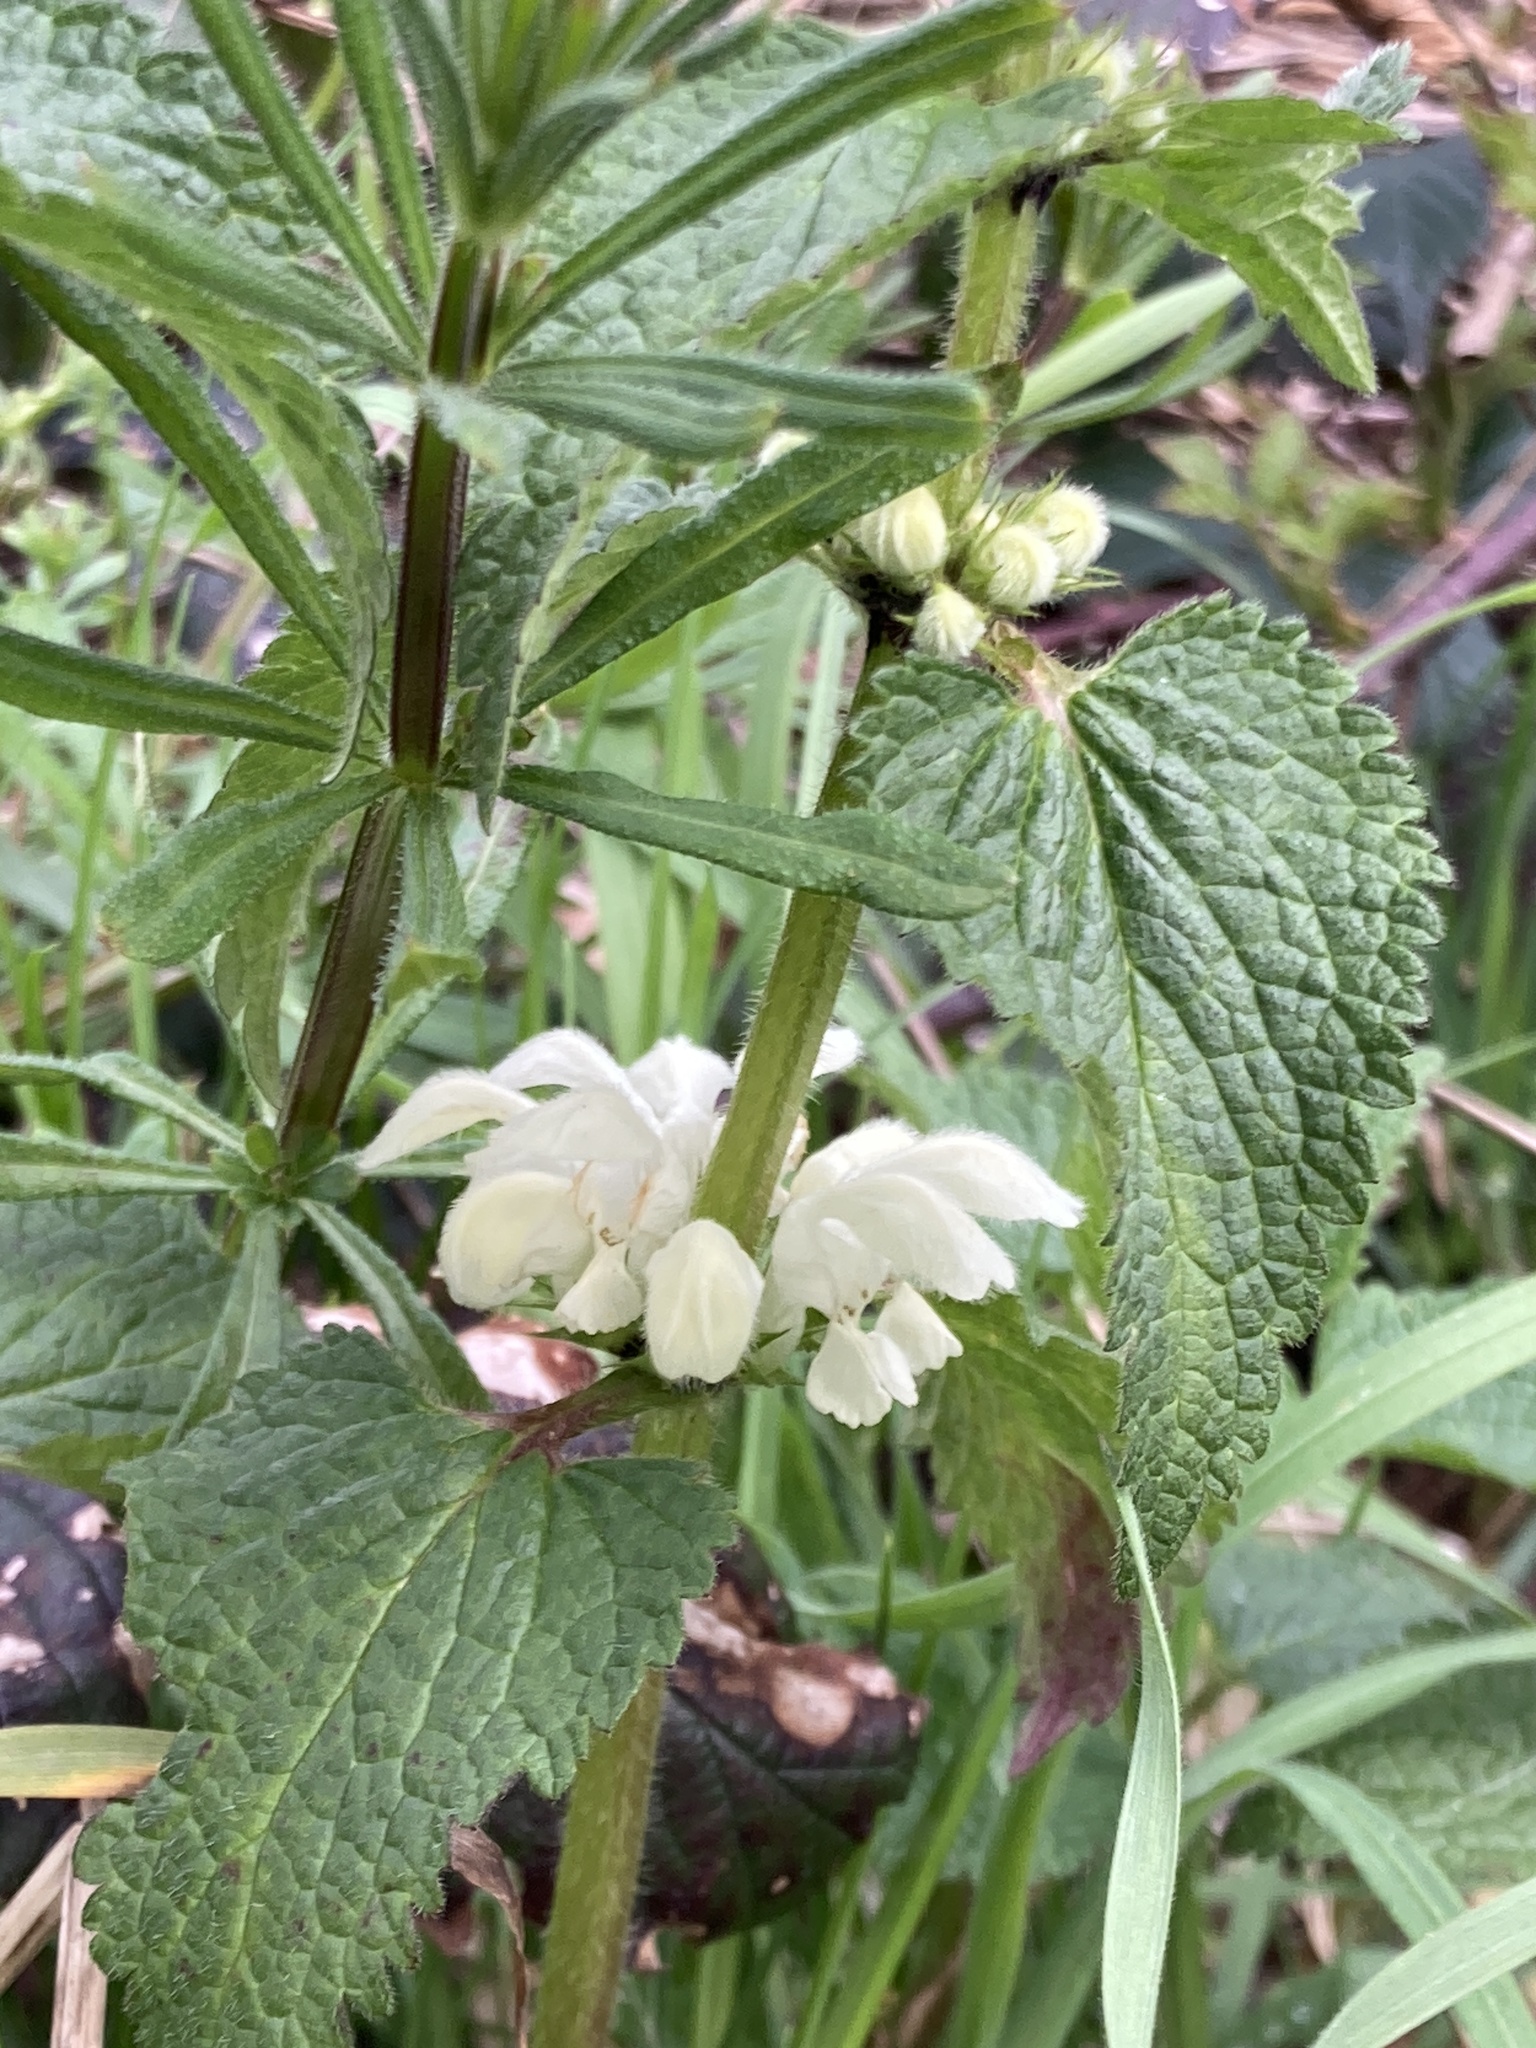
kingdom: Plantae
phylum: Tracheophyta
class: Magnoliopsida
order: Lamiales
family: Lamiaceae
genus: Lamium
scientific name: Lamium album
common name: White dead-nettle
